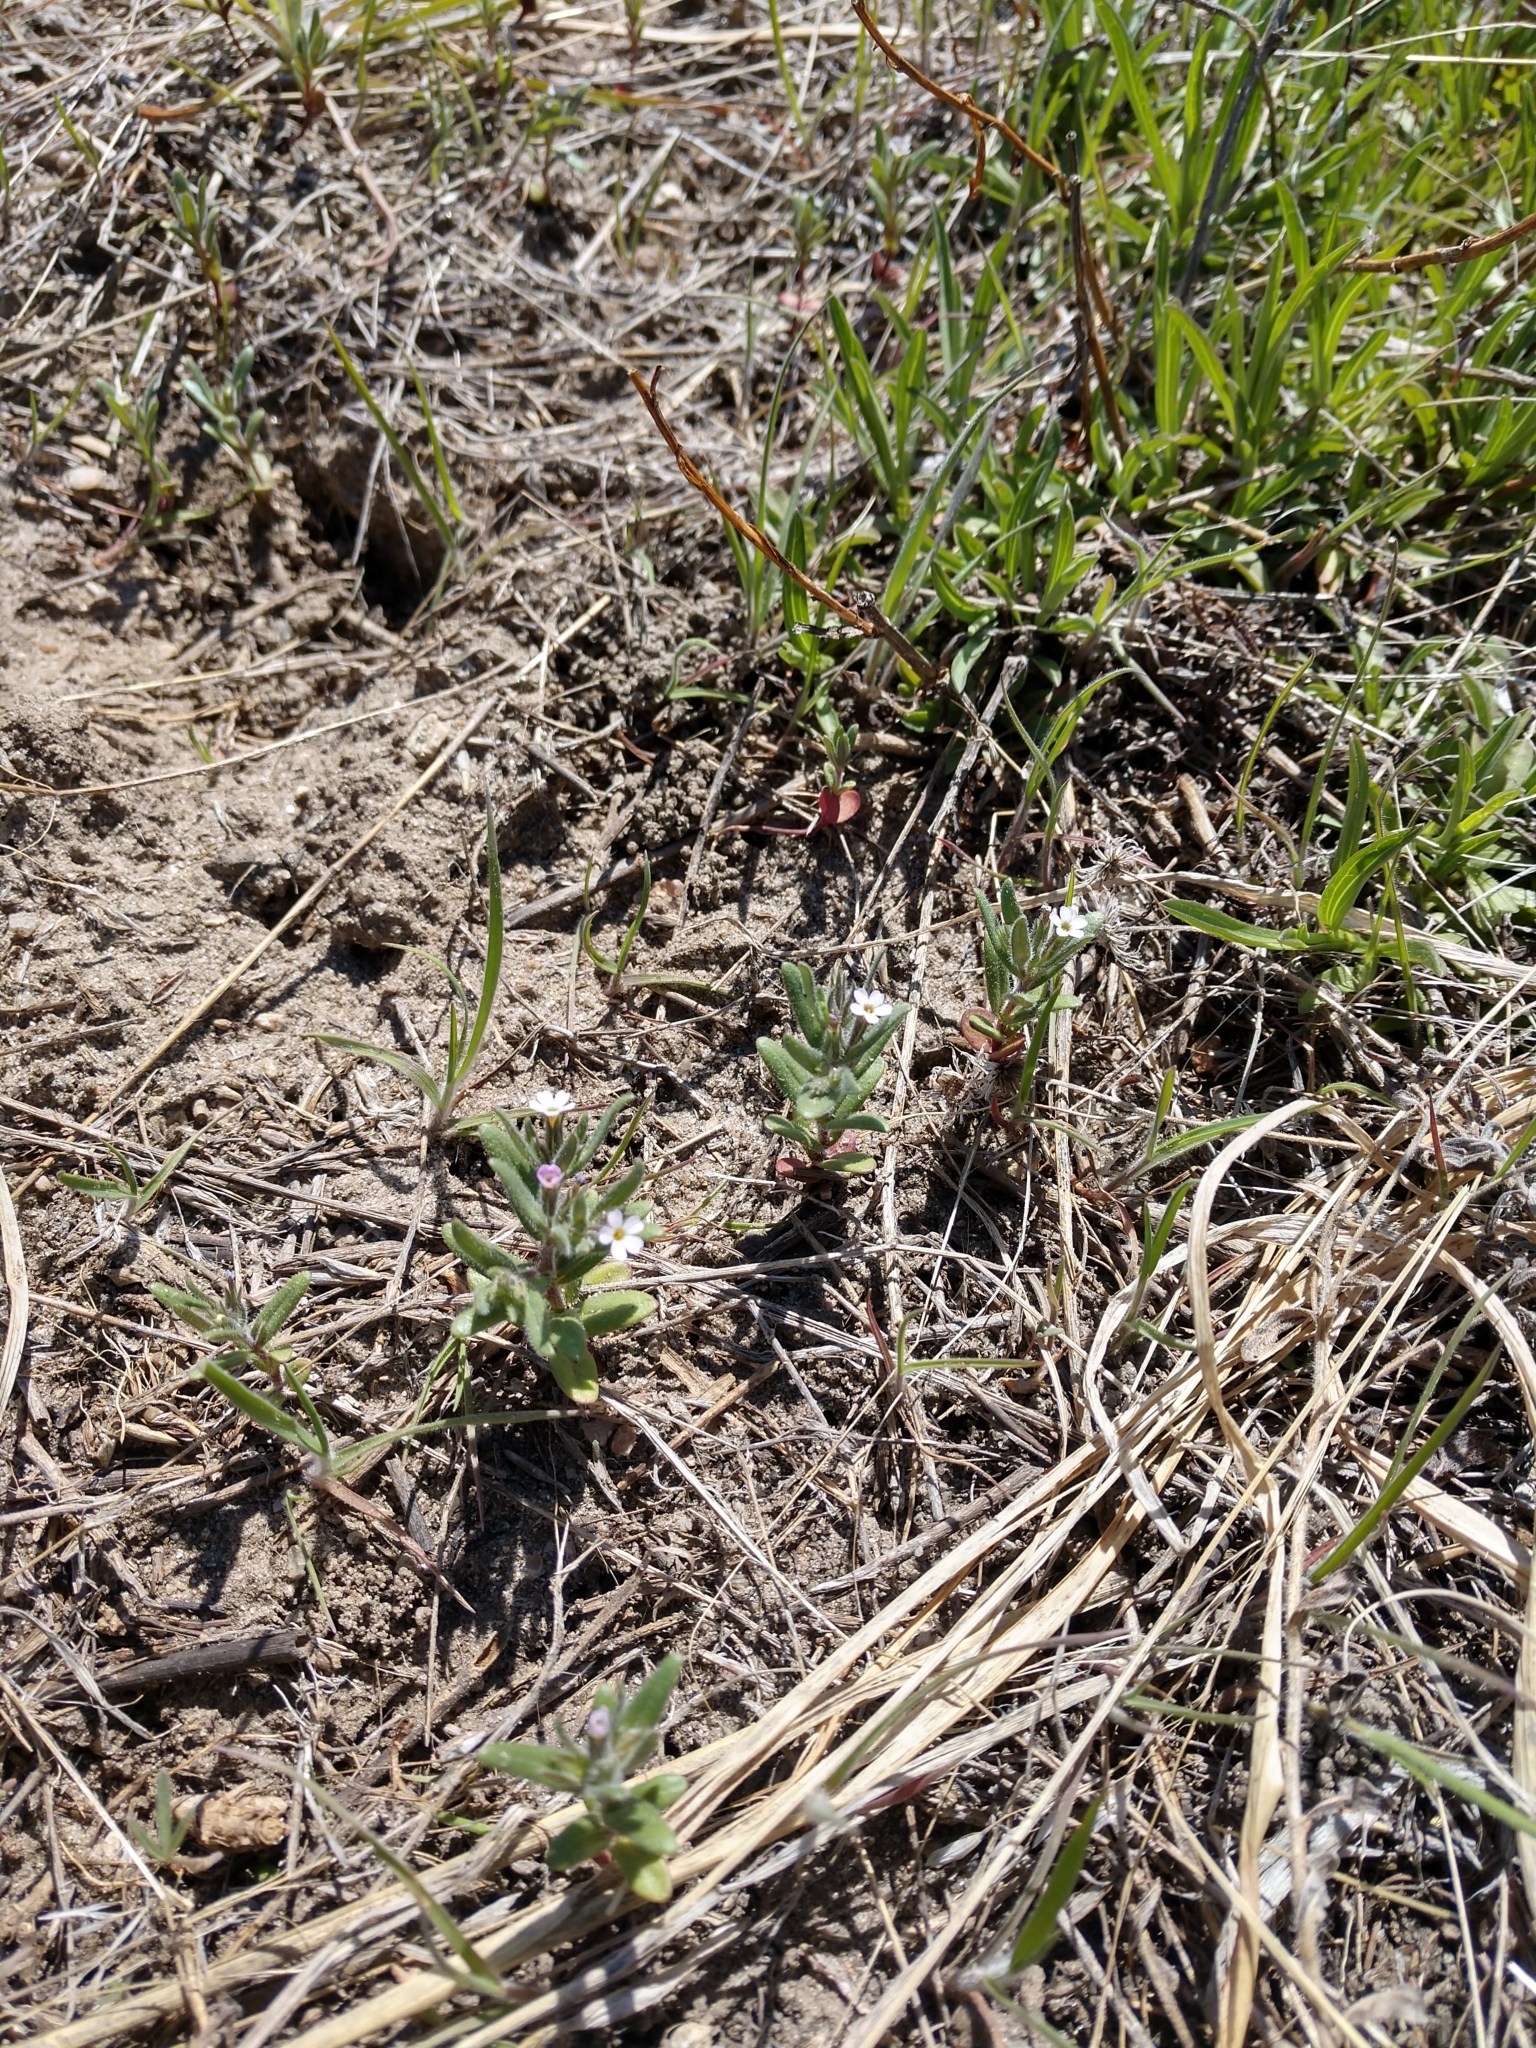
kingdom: Plantae
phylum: Tracheophyta
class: Magnoliopsida
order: Ericales
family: Polemoniaceae
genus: Phlox
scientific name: Phlox gracilis
